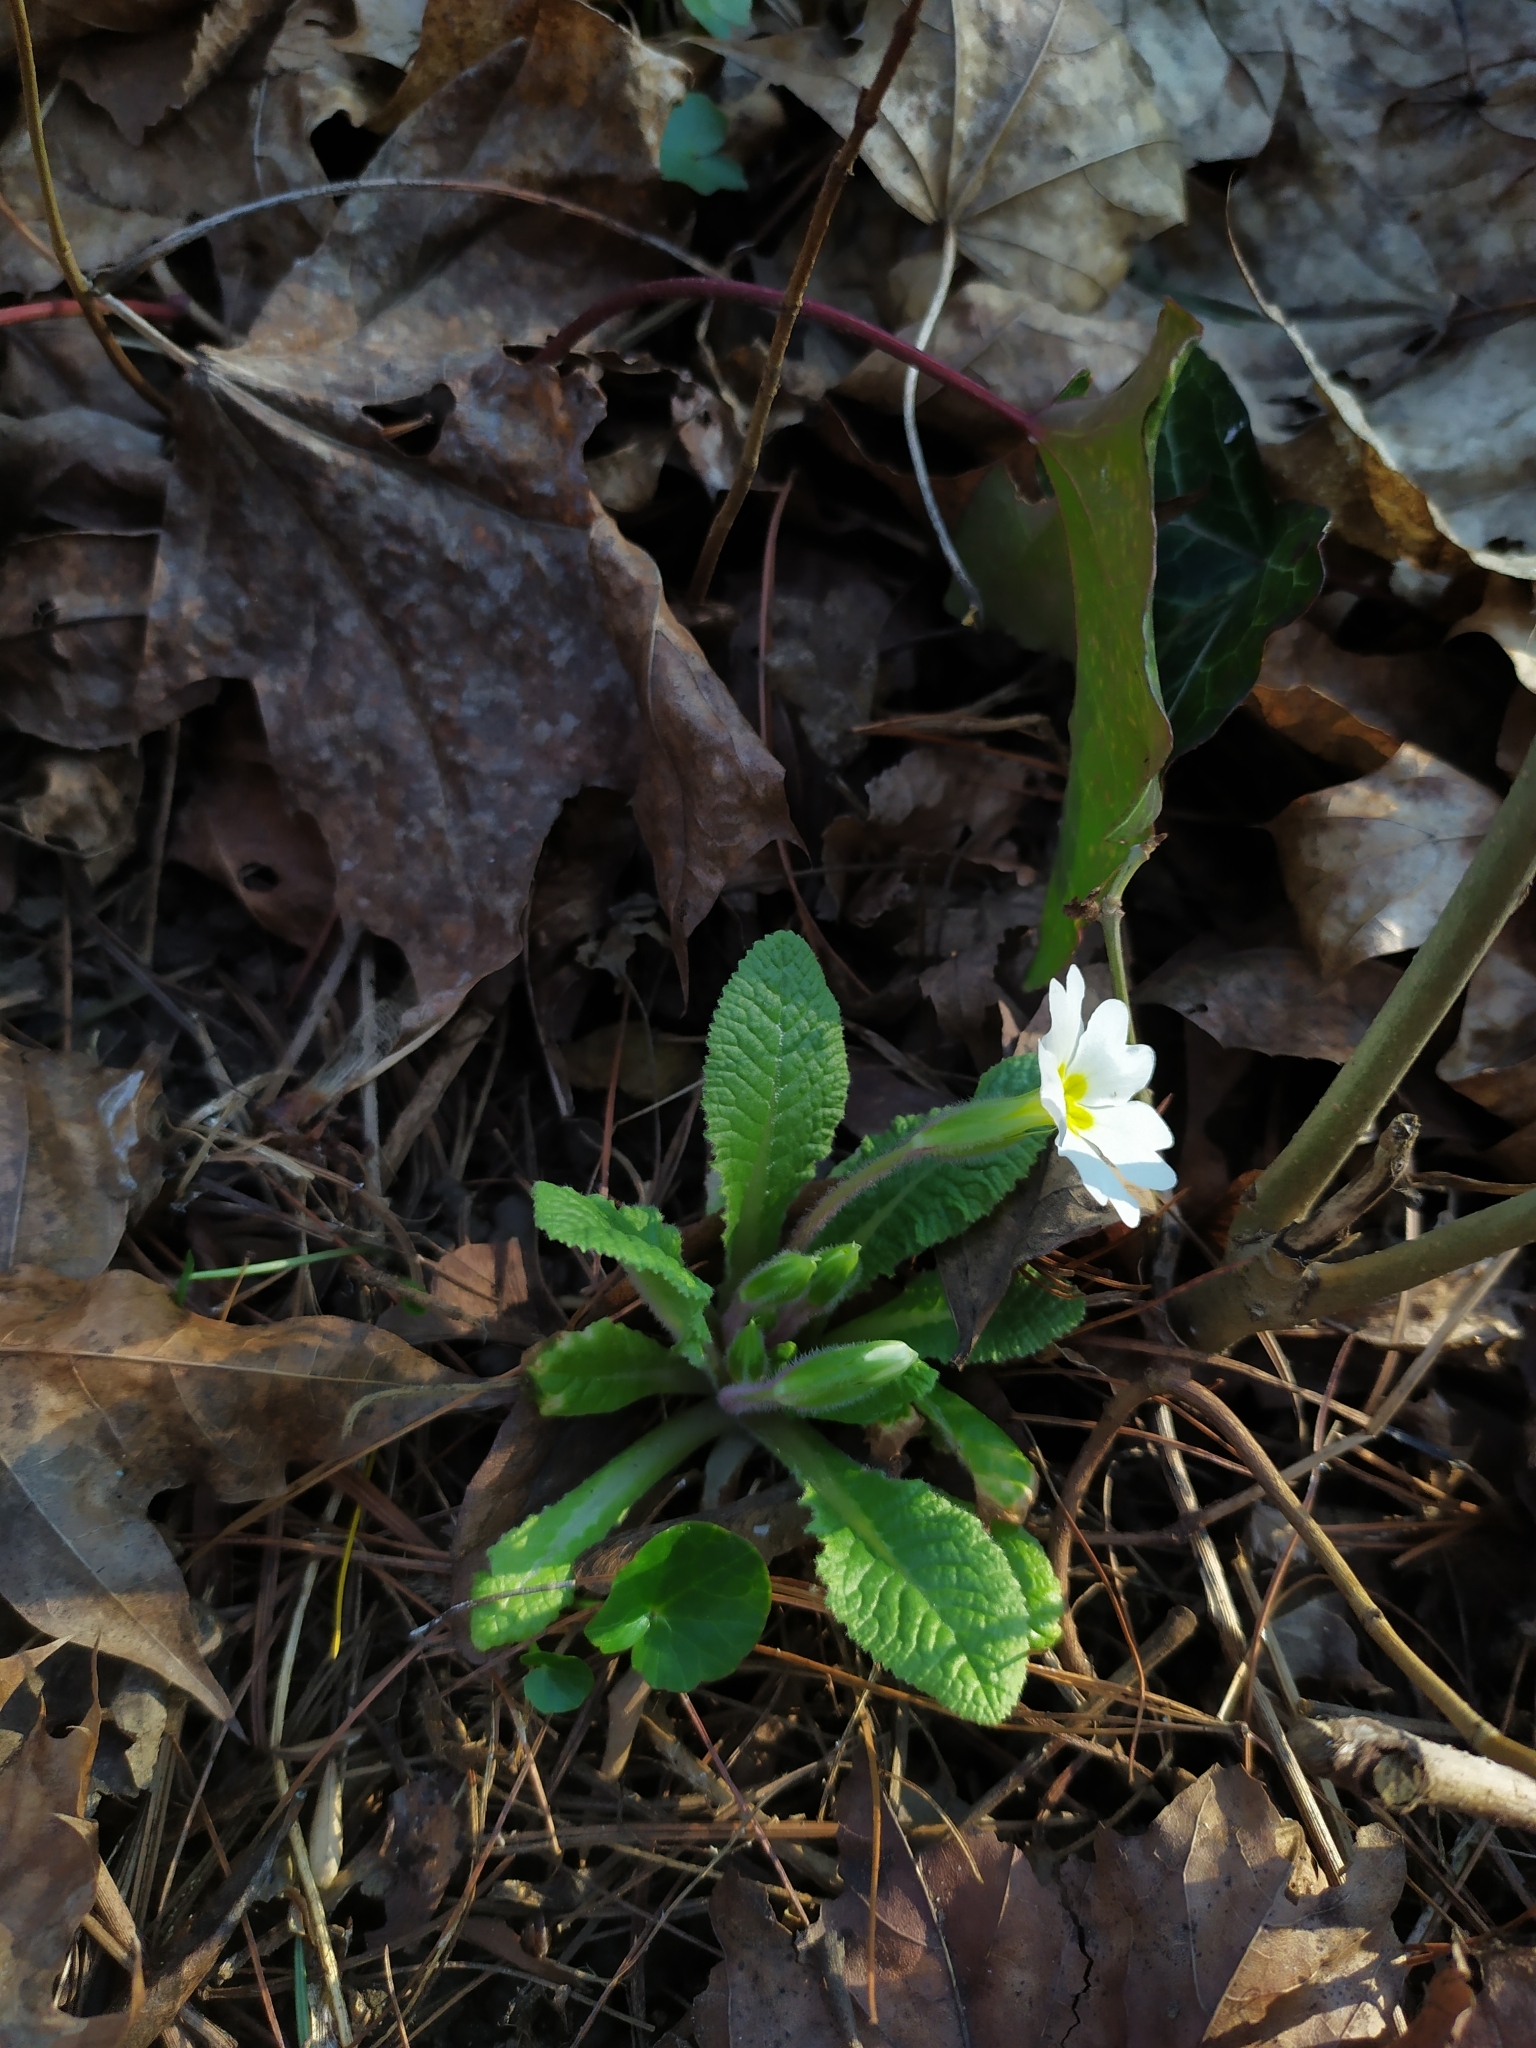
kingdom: Plantae
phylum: Tracheophyta
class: Magnoliopsida
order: Ericales
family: Primulaceae
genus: Primula
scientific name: Primula vulgaris
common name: Primrose
